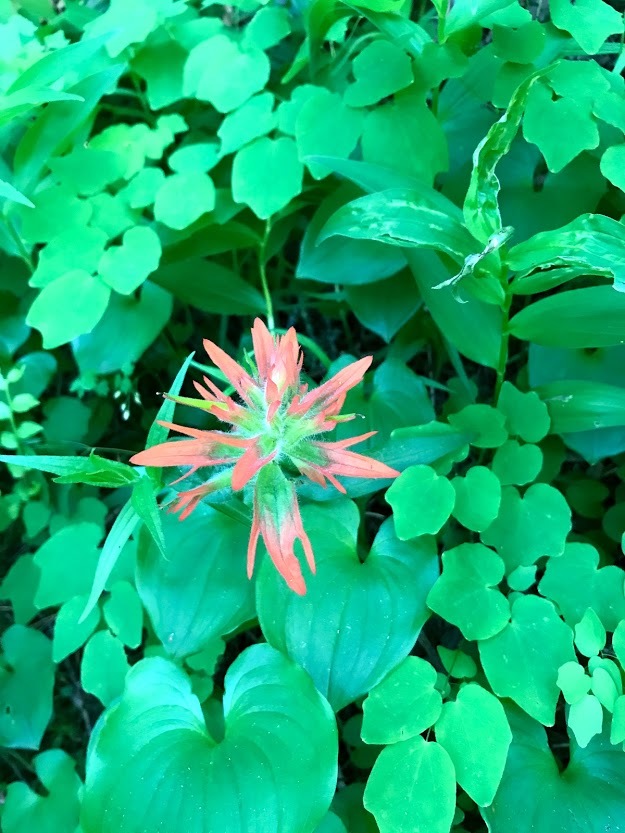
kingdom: Plantae
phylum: Tracheophyta
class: Magnoliopsida
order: Lamiales
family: Orobanchaceae
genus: Castilleja
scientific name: Castilleja miniata
